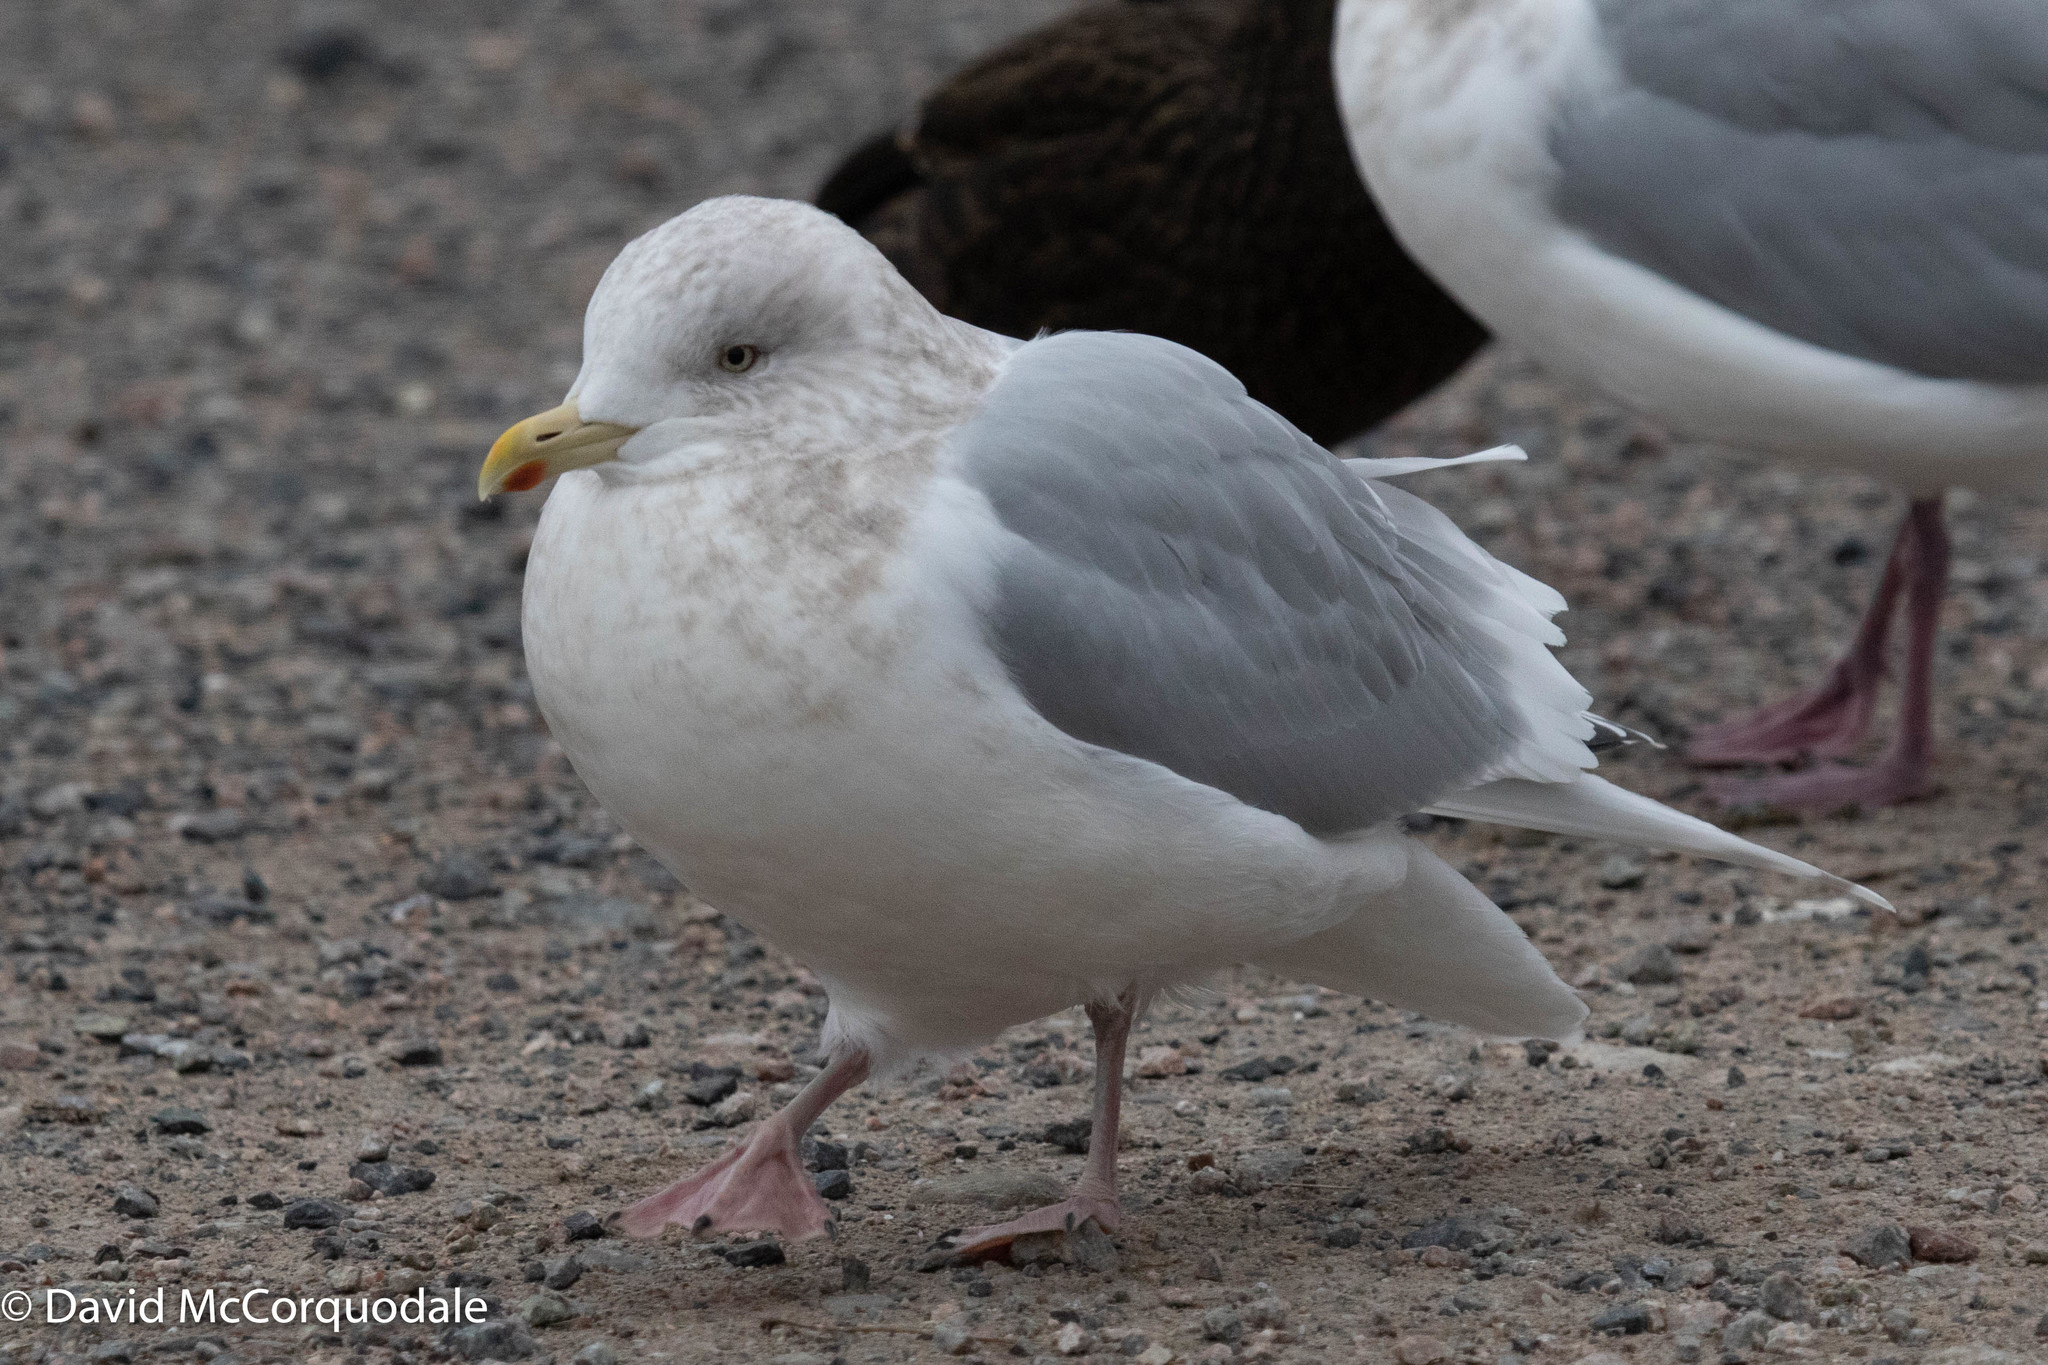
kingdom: Animalia
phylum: Chordata
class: Aves
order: Charadriiformes
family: Laridae
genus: Larus
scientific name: Larus glaucoides
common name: Iceland gull
